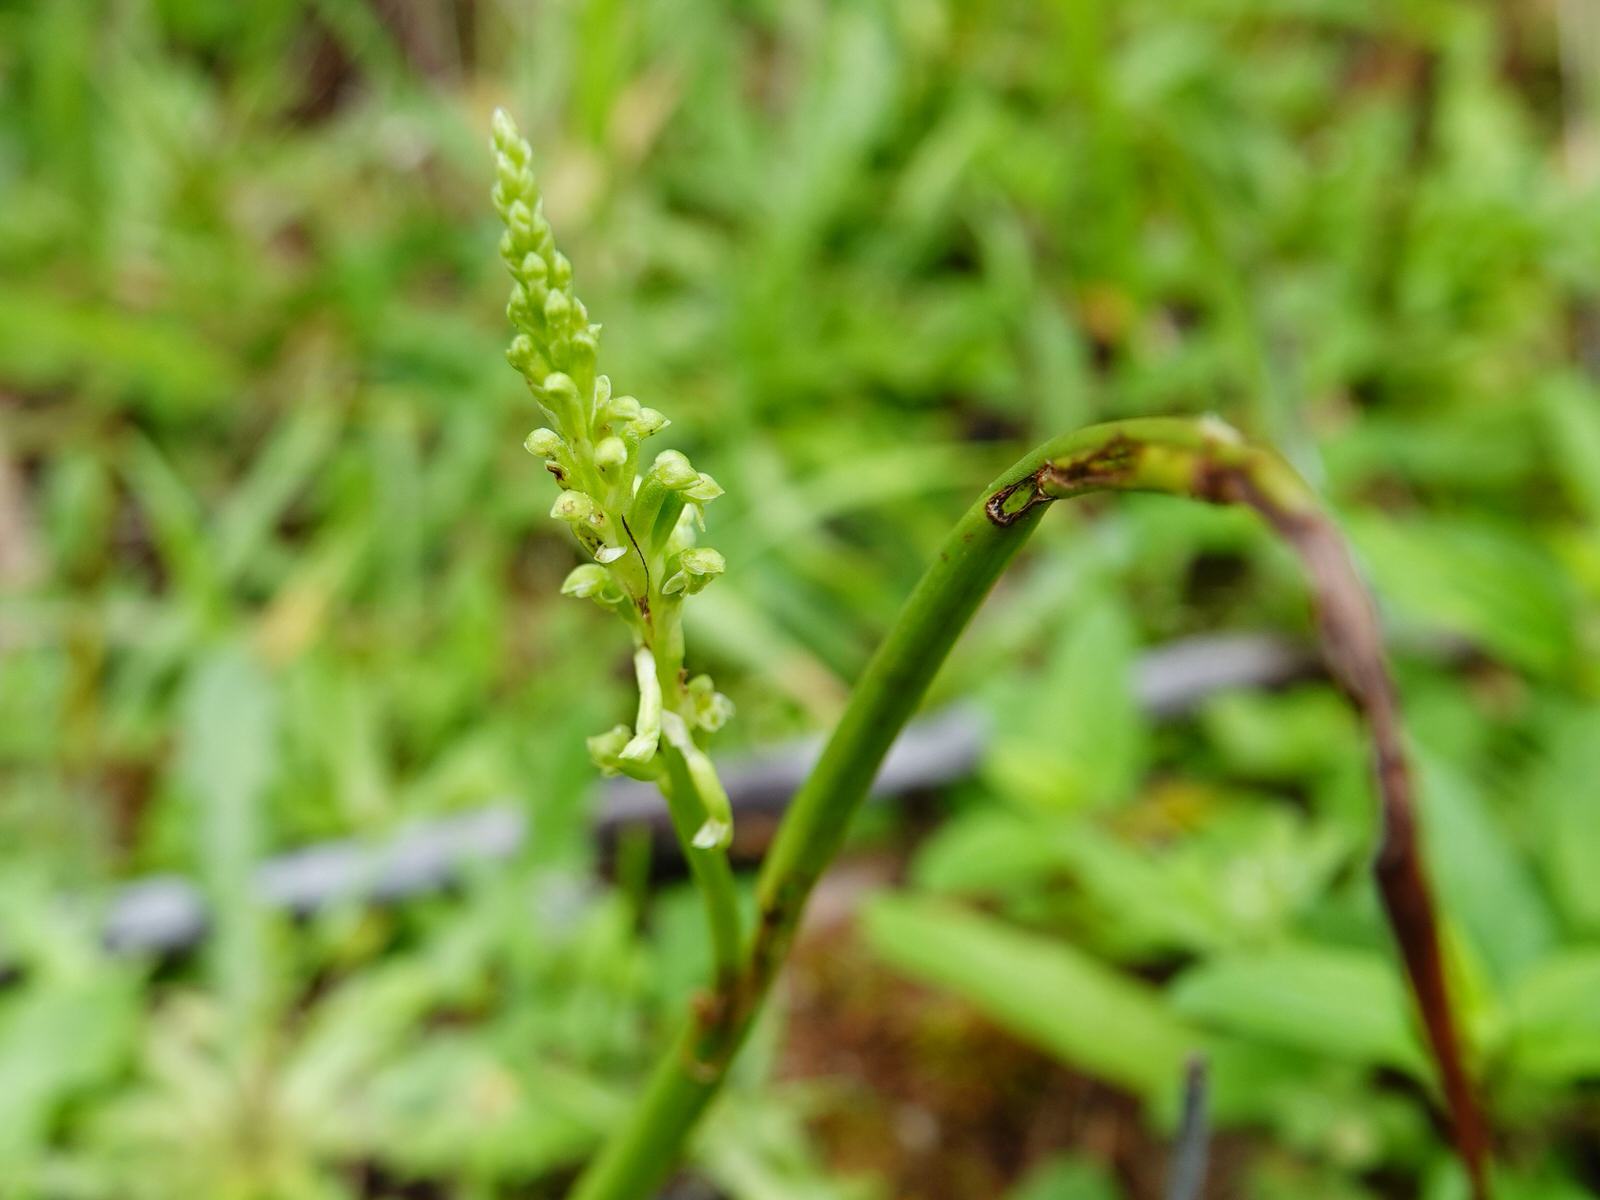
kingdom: Plantae
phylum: Tracheophyta
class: Liliopsida
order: Asparagales
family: Orchidaceae
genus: Microtis
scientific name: Microtis unifolia
